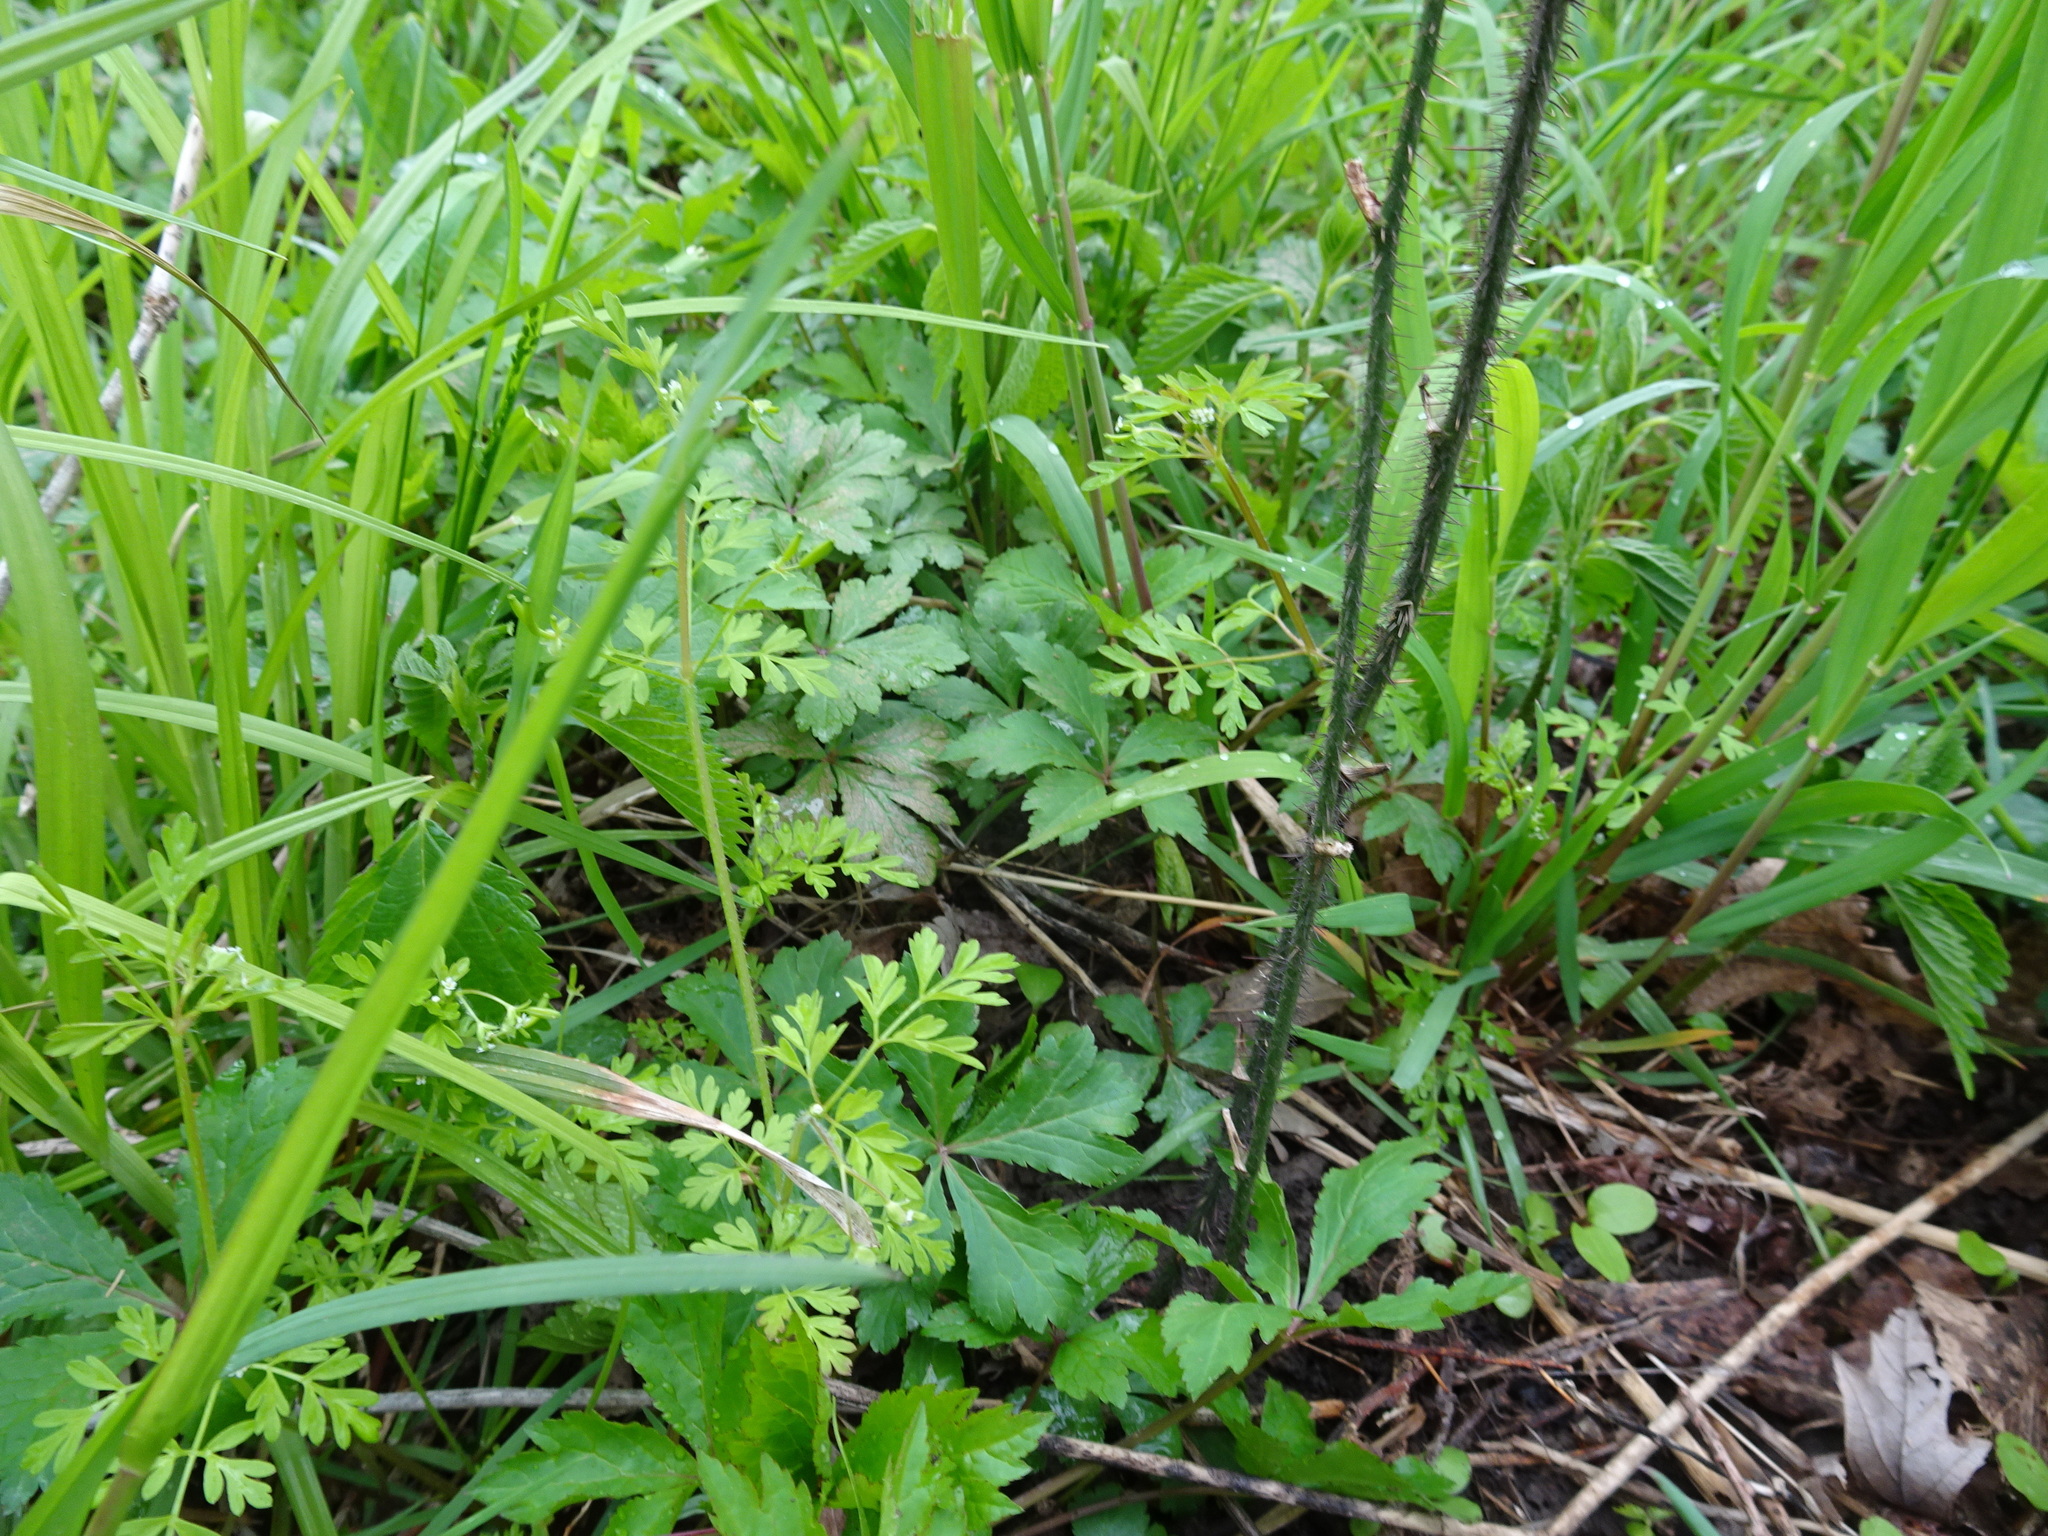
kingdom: Plantae
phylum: Tracheophyta
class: Magnoliopsida
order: Apiales
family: Apiaceae
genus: Chaerophyllum
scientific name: Chaerophyllum procumbens
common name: Spreading chervil
